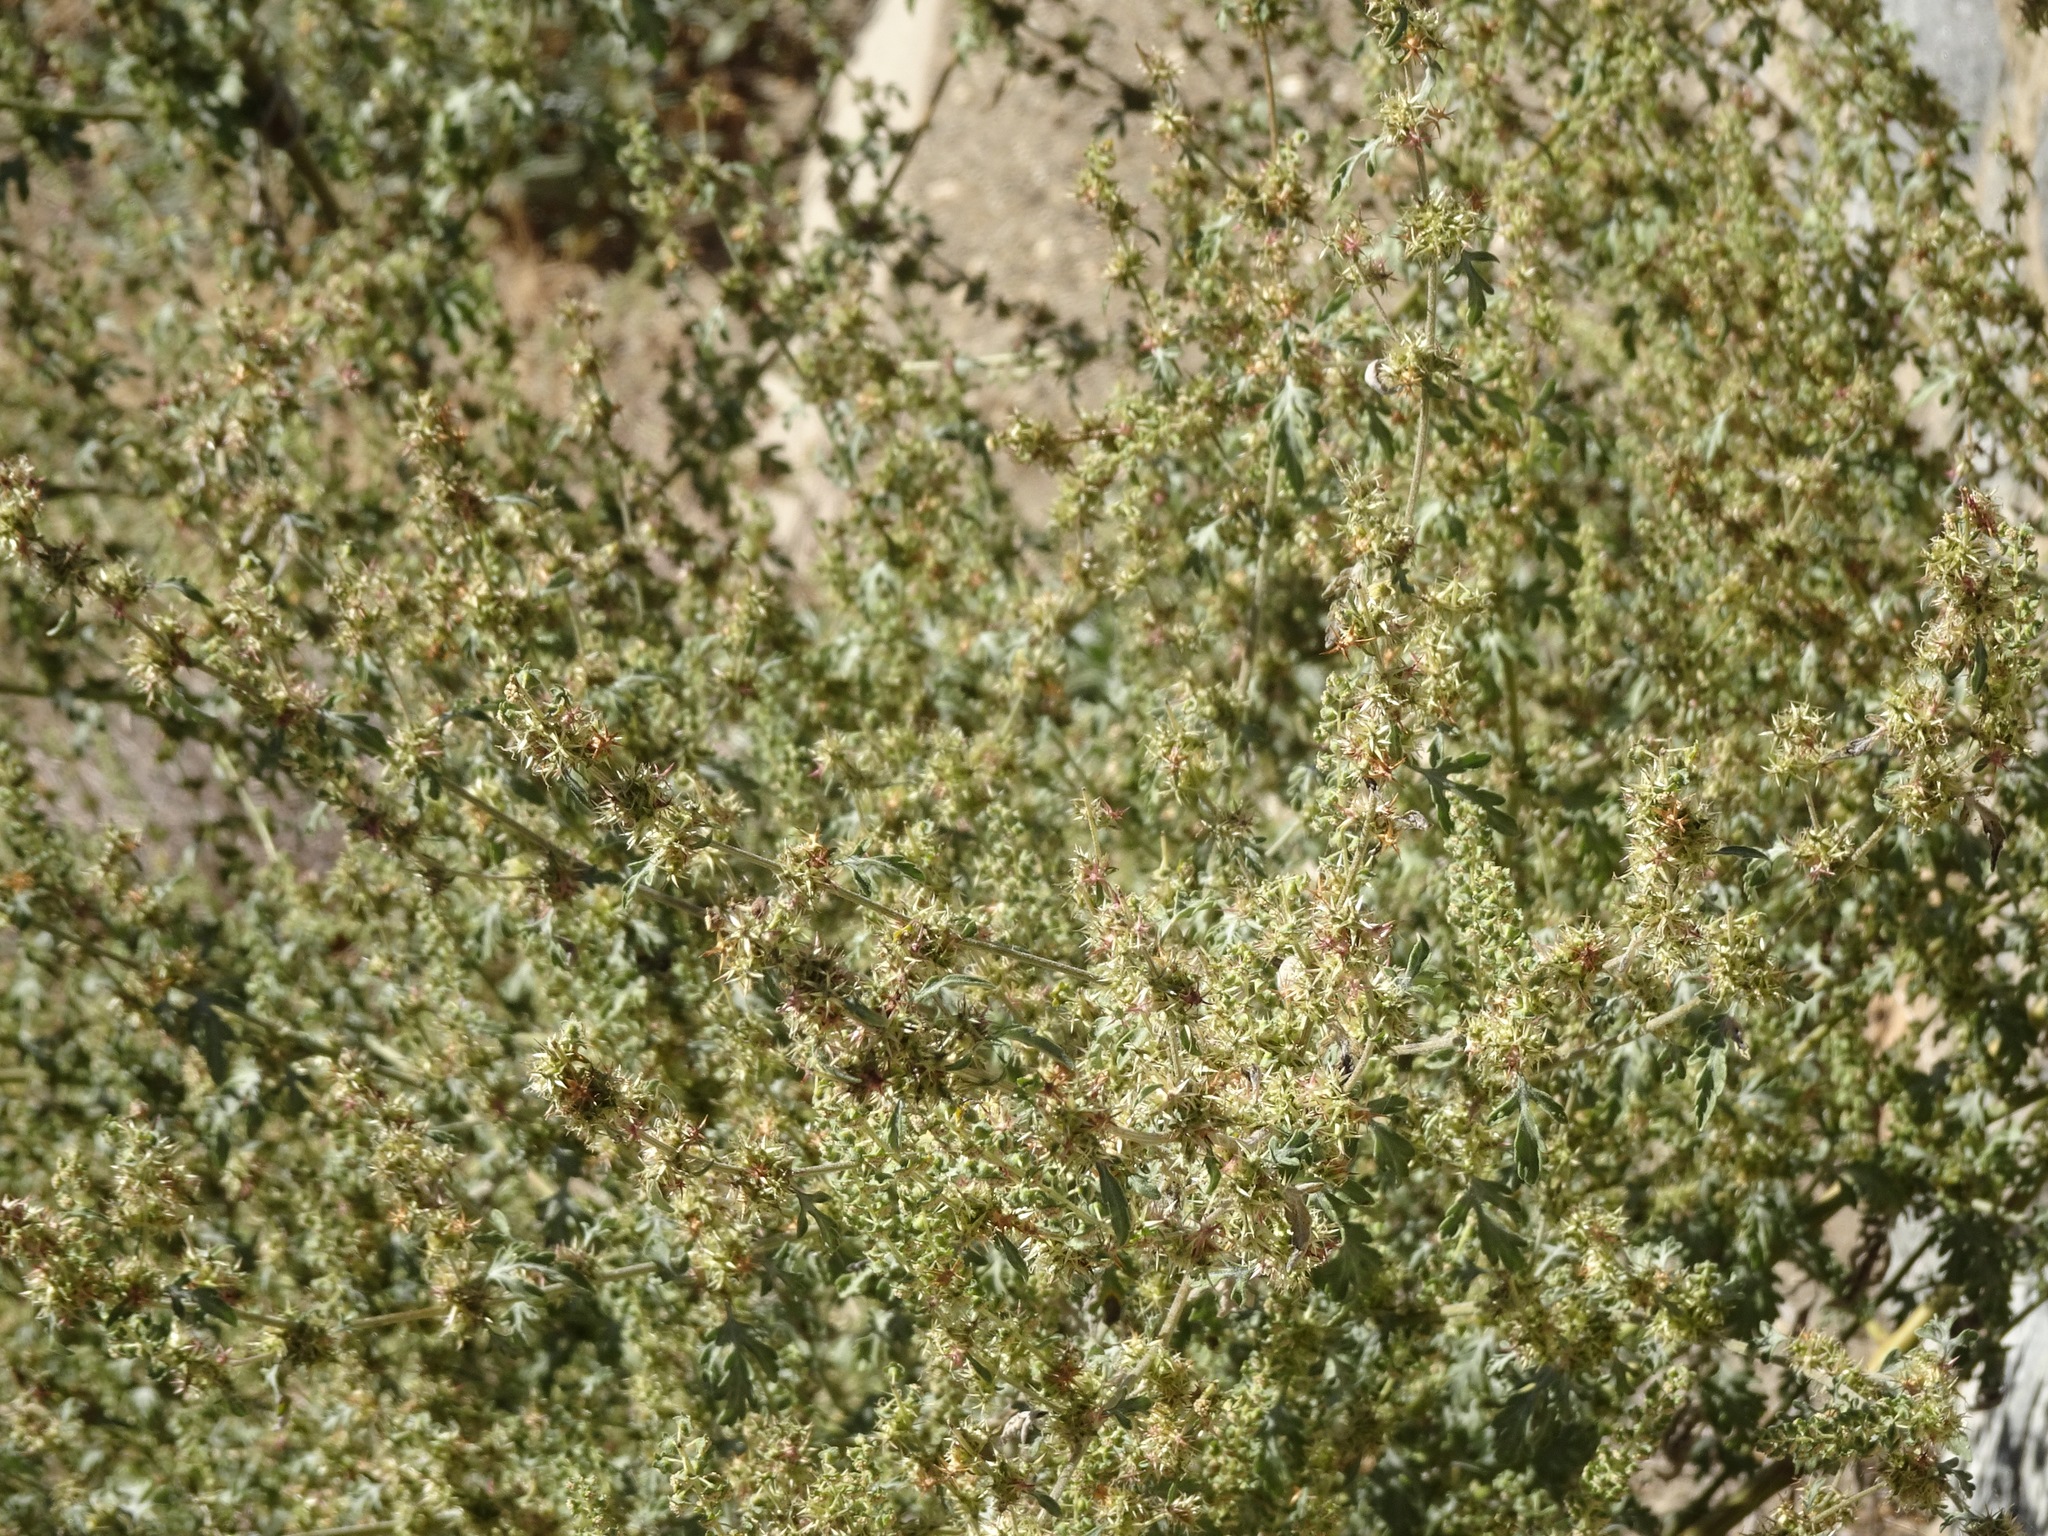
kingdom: Plantae
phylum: Tracheophyta
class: Magnoliopsida
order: Asterales
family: Asteraceae
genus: Ambrosia
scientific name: Ambrosia acanthicarpa
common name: Hooker's bur ragweed
